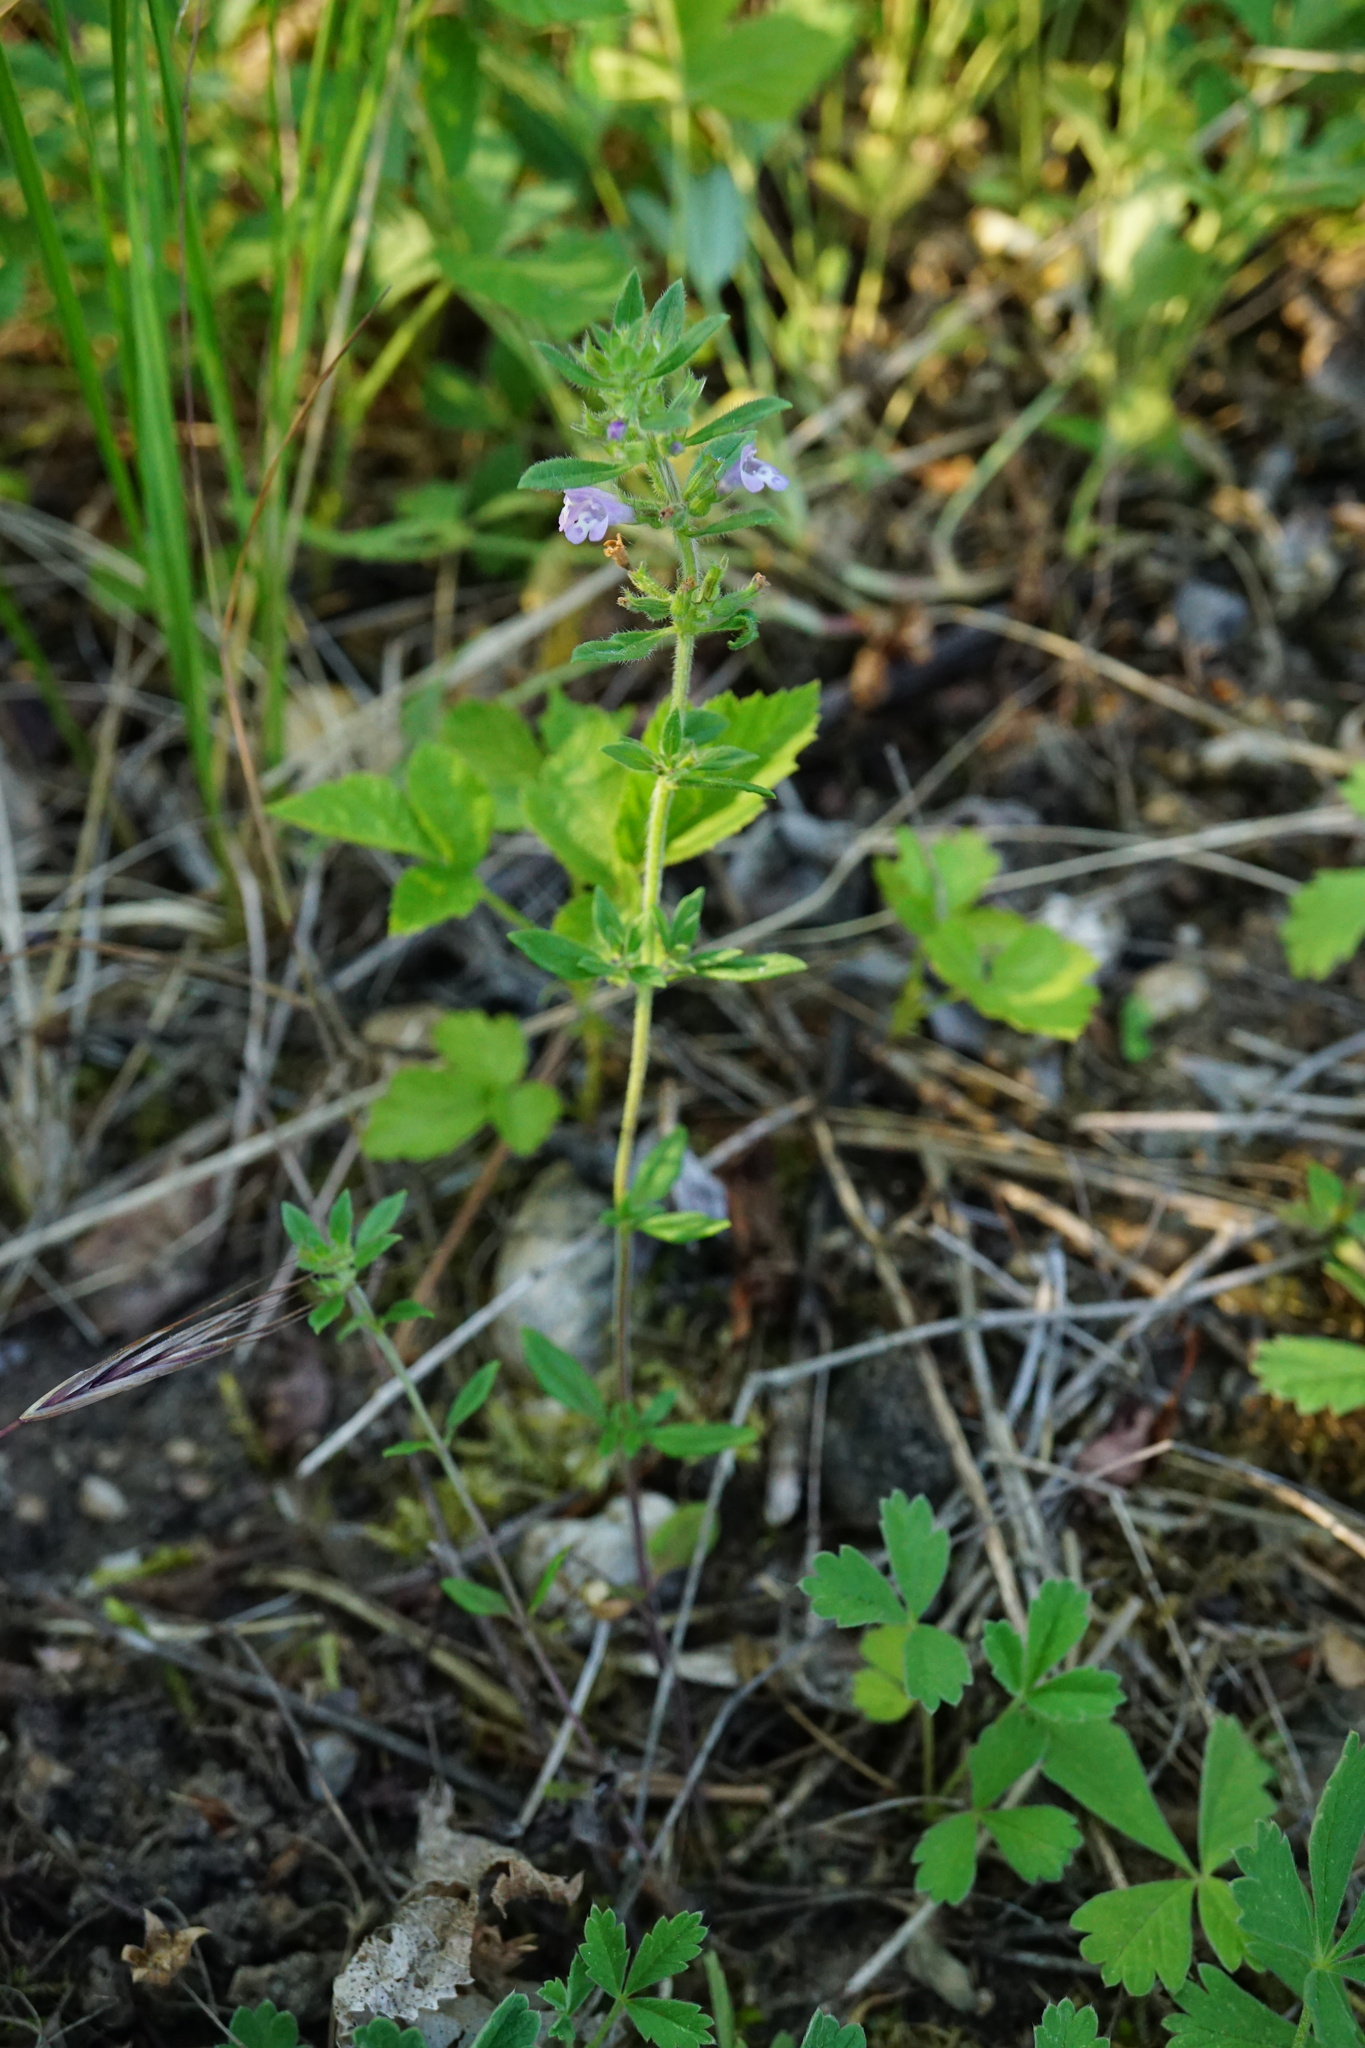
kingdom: Plantae
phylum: Tracheophyta
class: Magnoliopsida
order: Lamiales
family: Lamiaceae
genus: Clinopodium
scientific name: Clinopodium acinos
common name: Basil thyme
